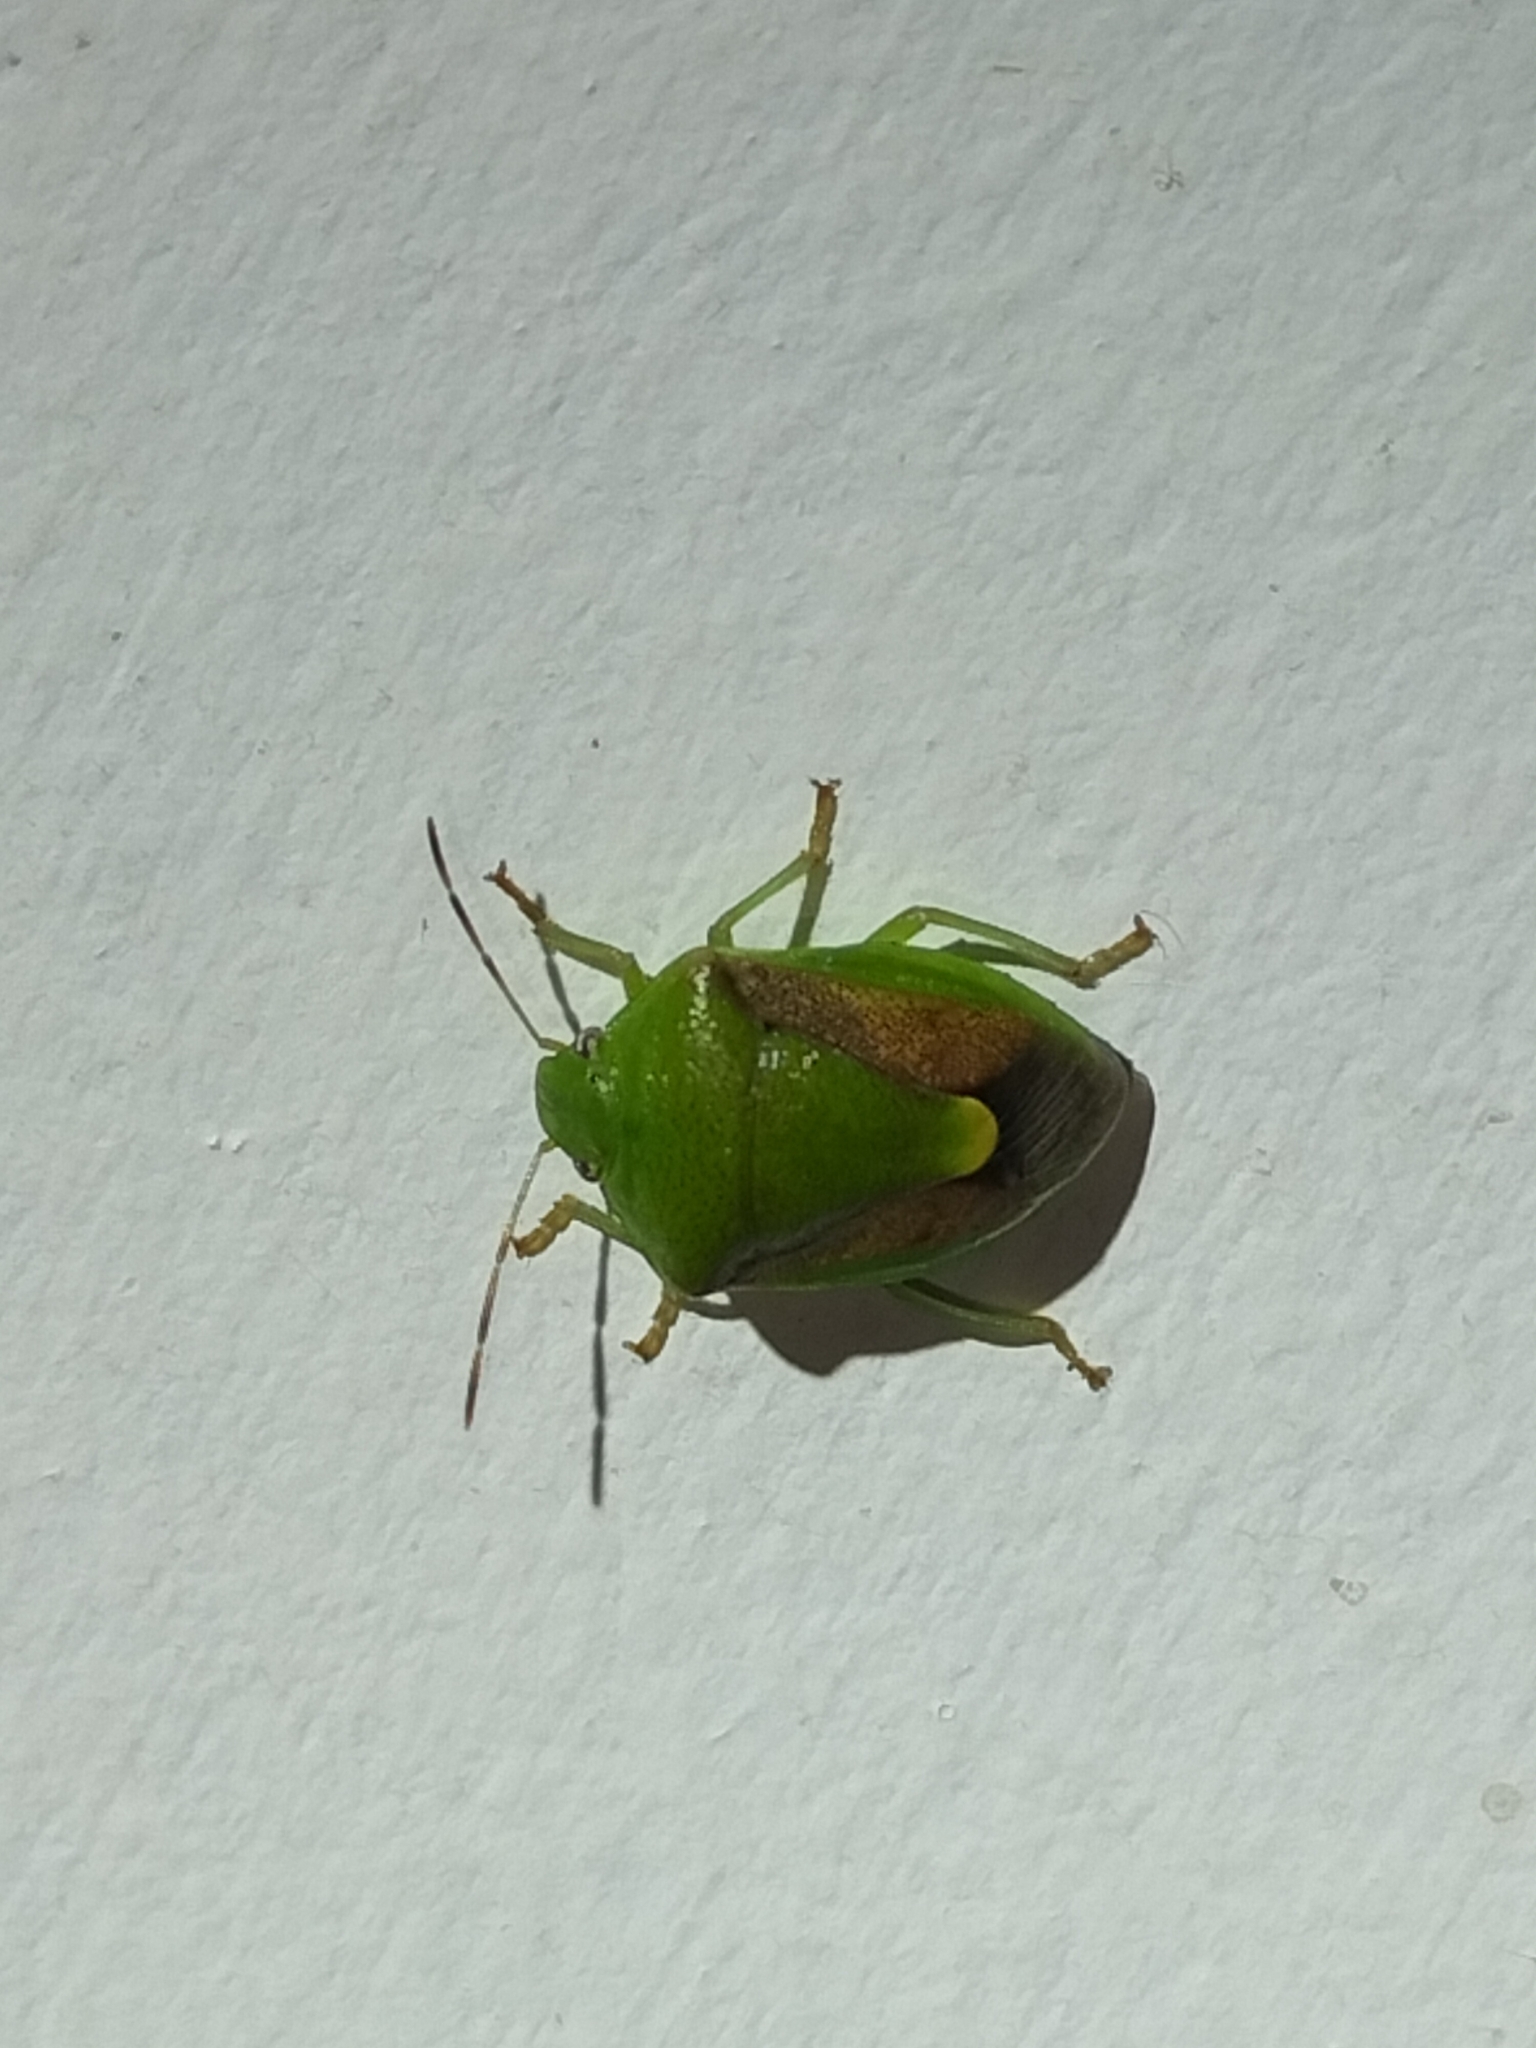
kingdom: Animalia
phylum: Arthropoda
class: Insecta
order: Hemiptera
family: Pentatomidae
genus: Plautia
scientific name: Plautia affinis
